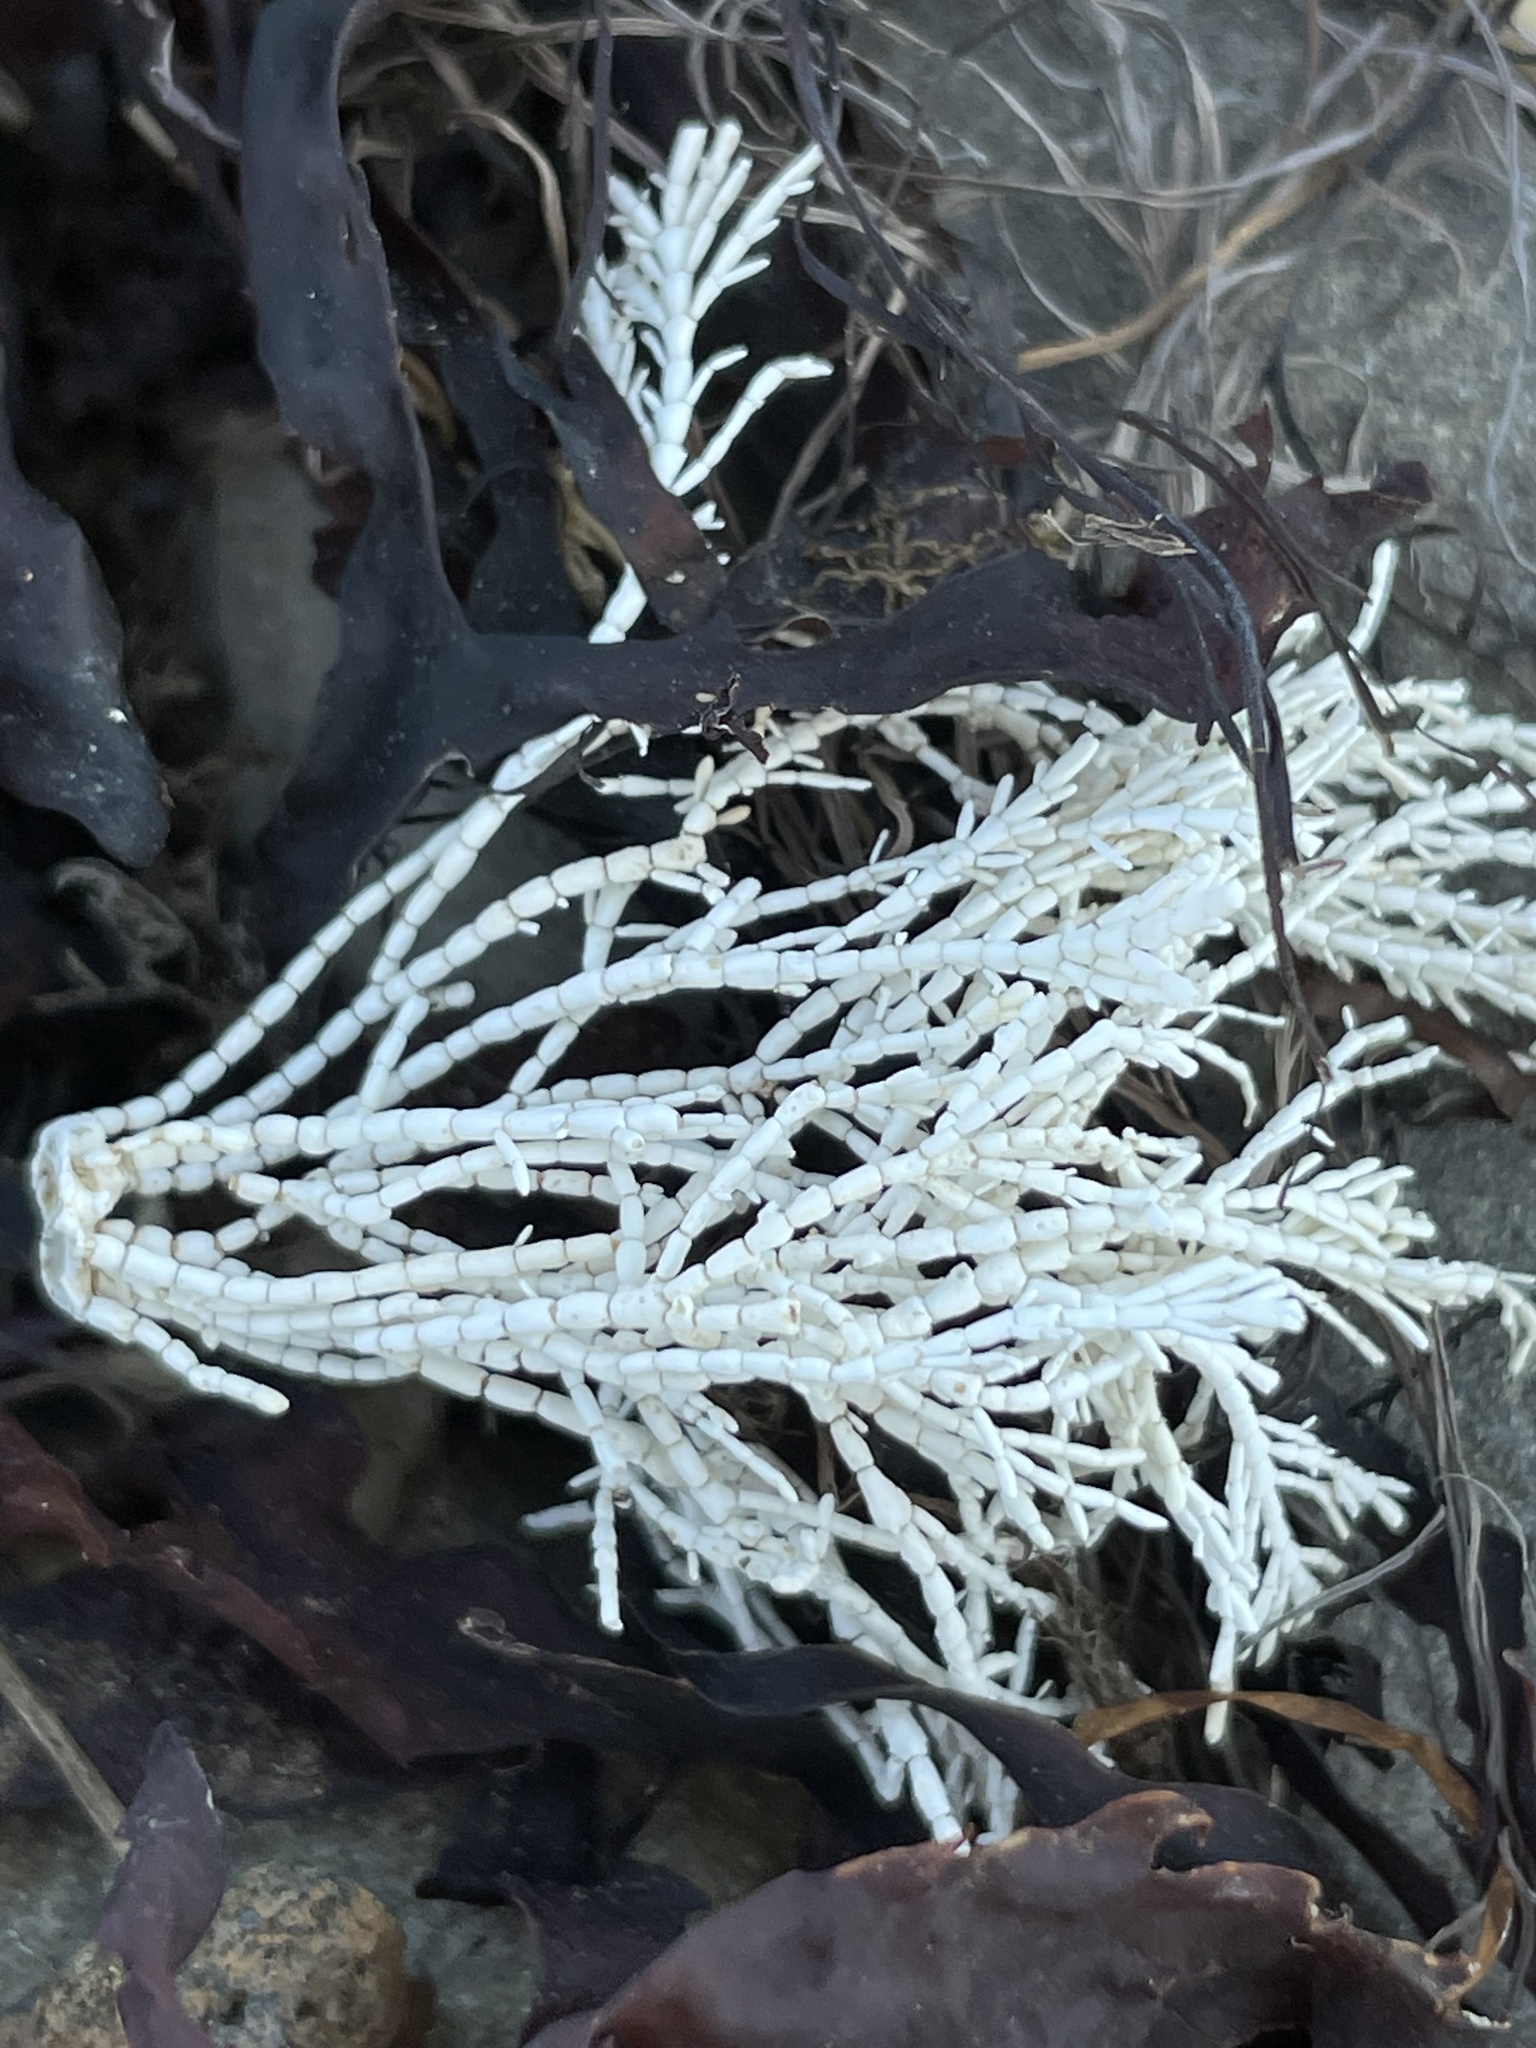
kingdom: Plantae
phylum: Rhodophyta
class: Florideophyceae
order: Corallinales
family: Corallinaceae
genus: Corallina
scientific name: Corallina officinalis
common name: Coral weed
